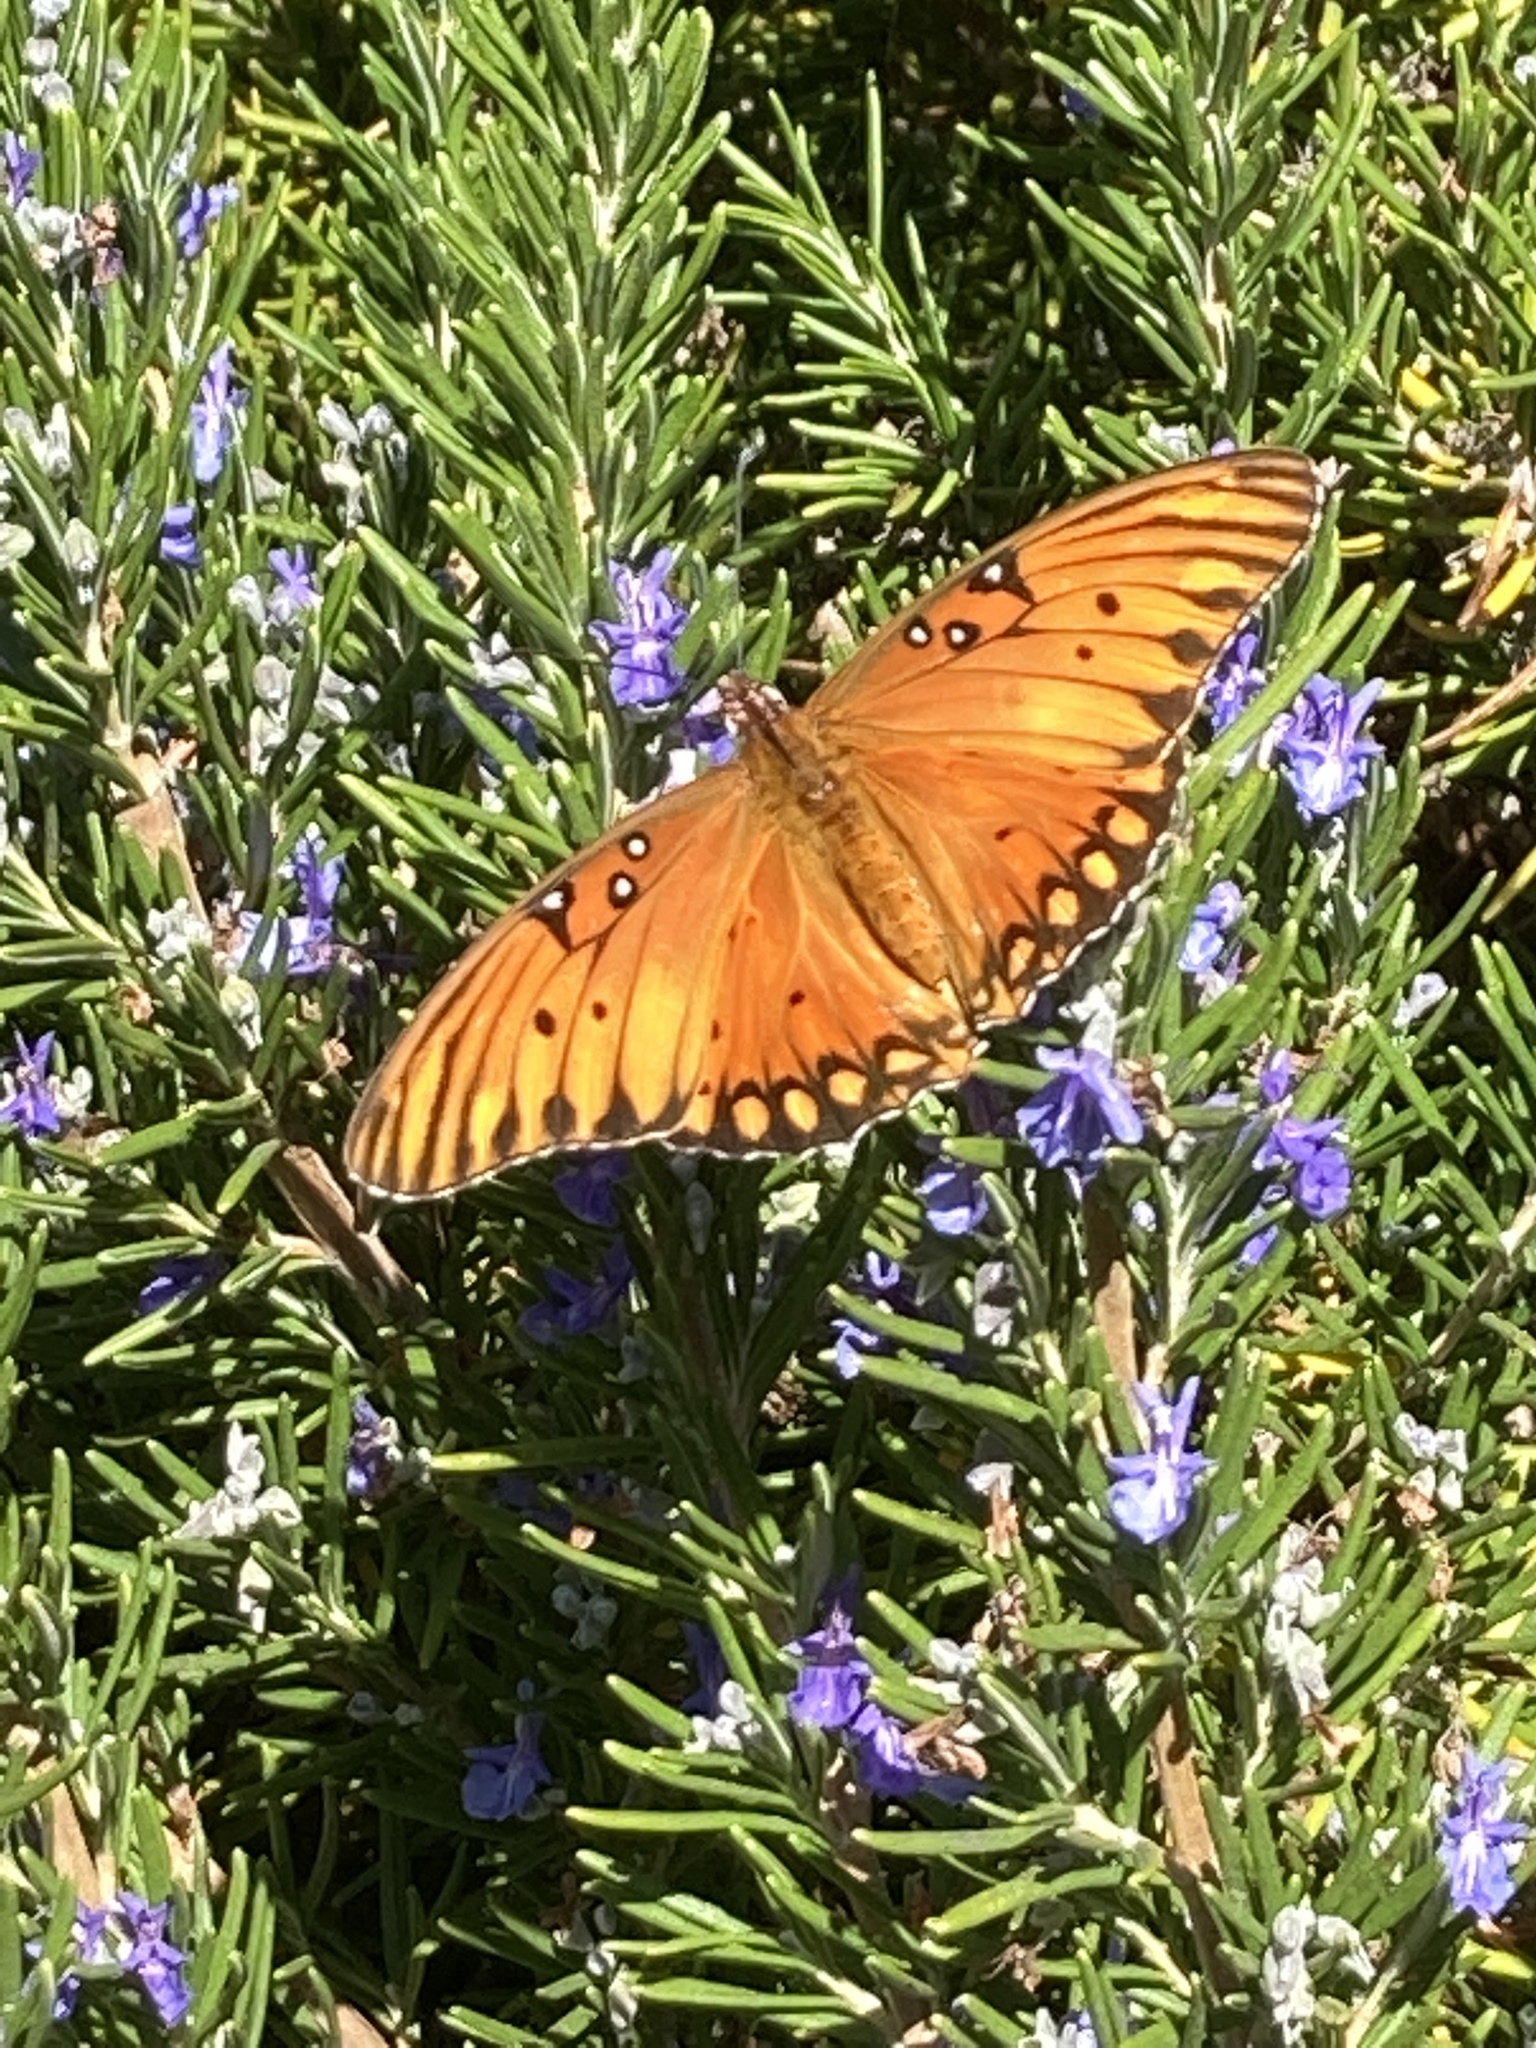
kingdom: Animalia
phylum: Arthropoda
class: Insecta
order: Lepidoptera
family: Nymphalidae
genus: Dione
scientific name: Dione vanillae
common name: Gulf fritillary
